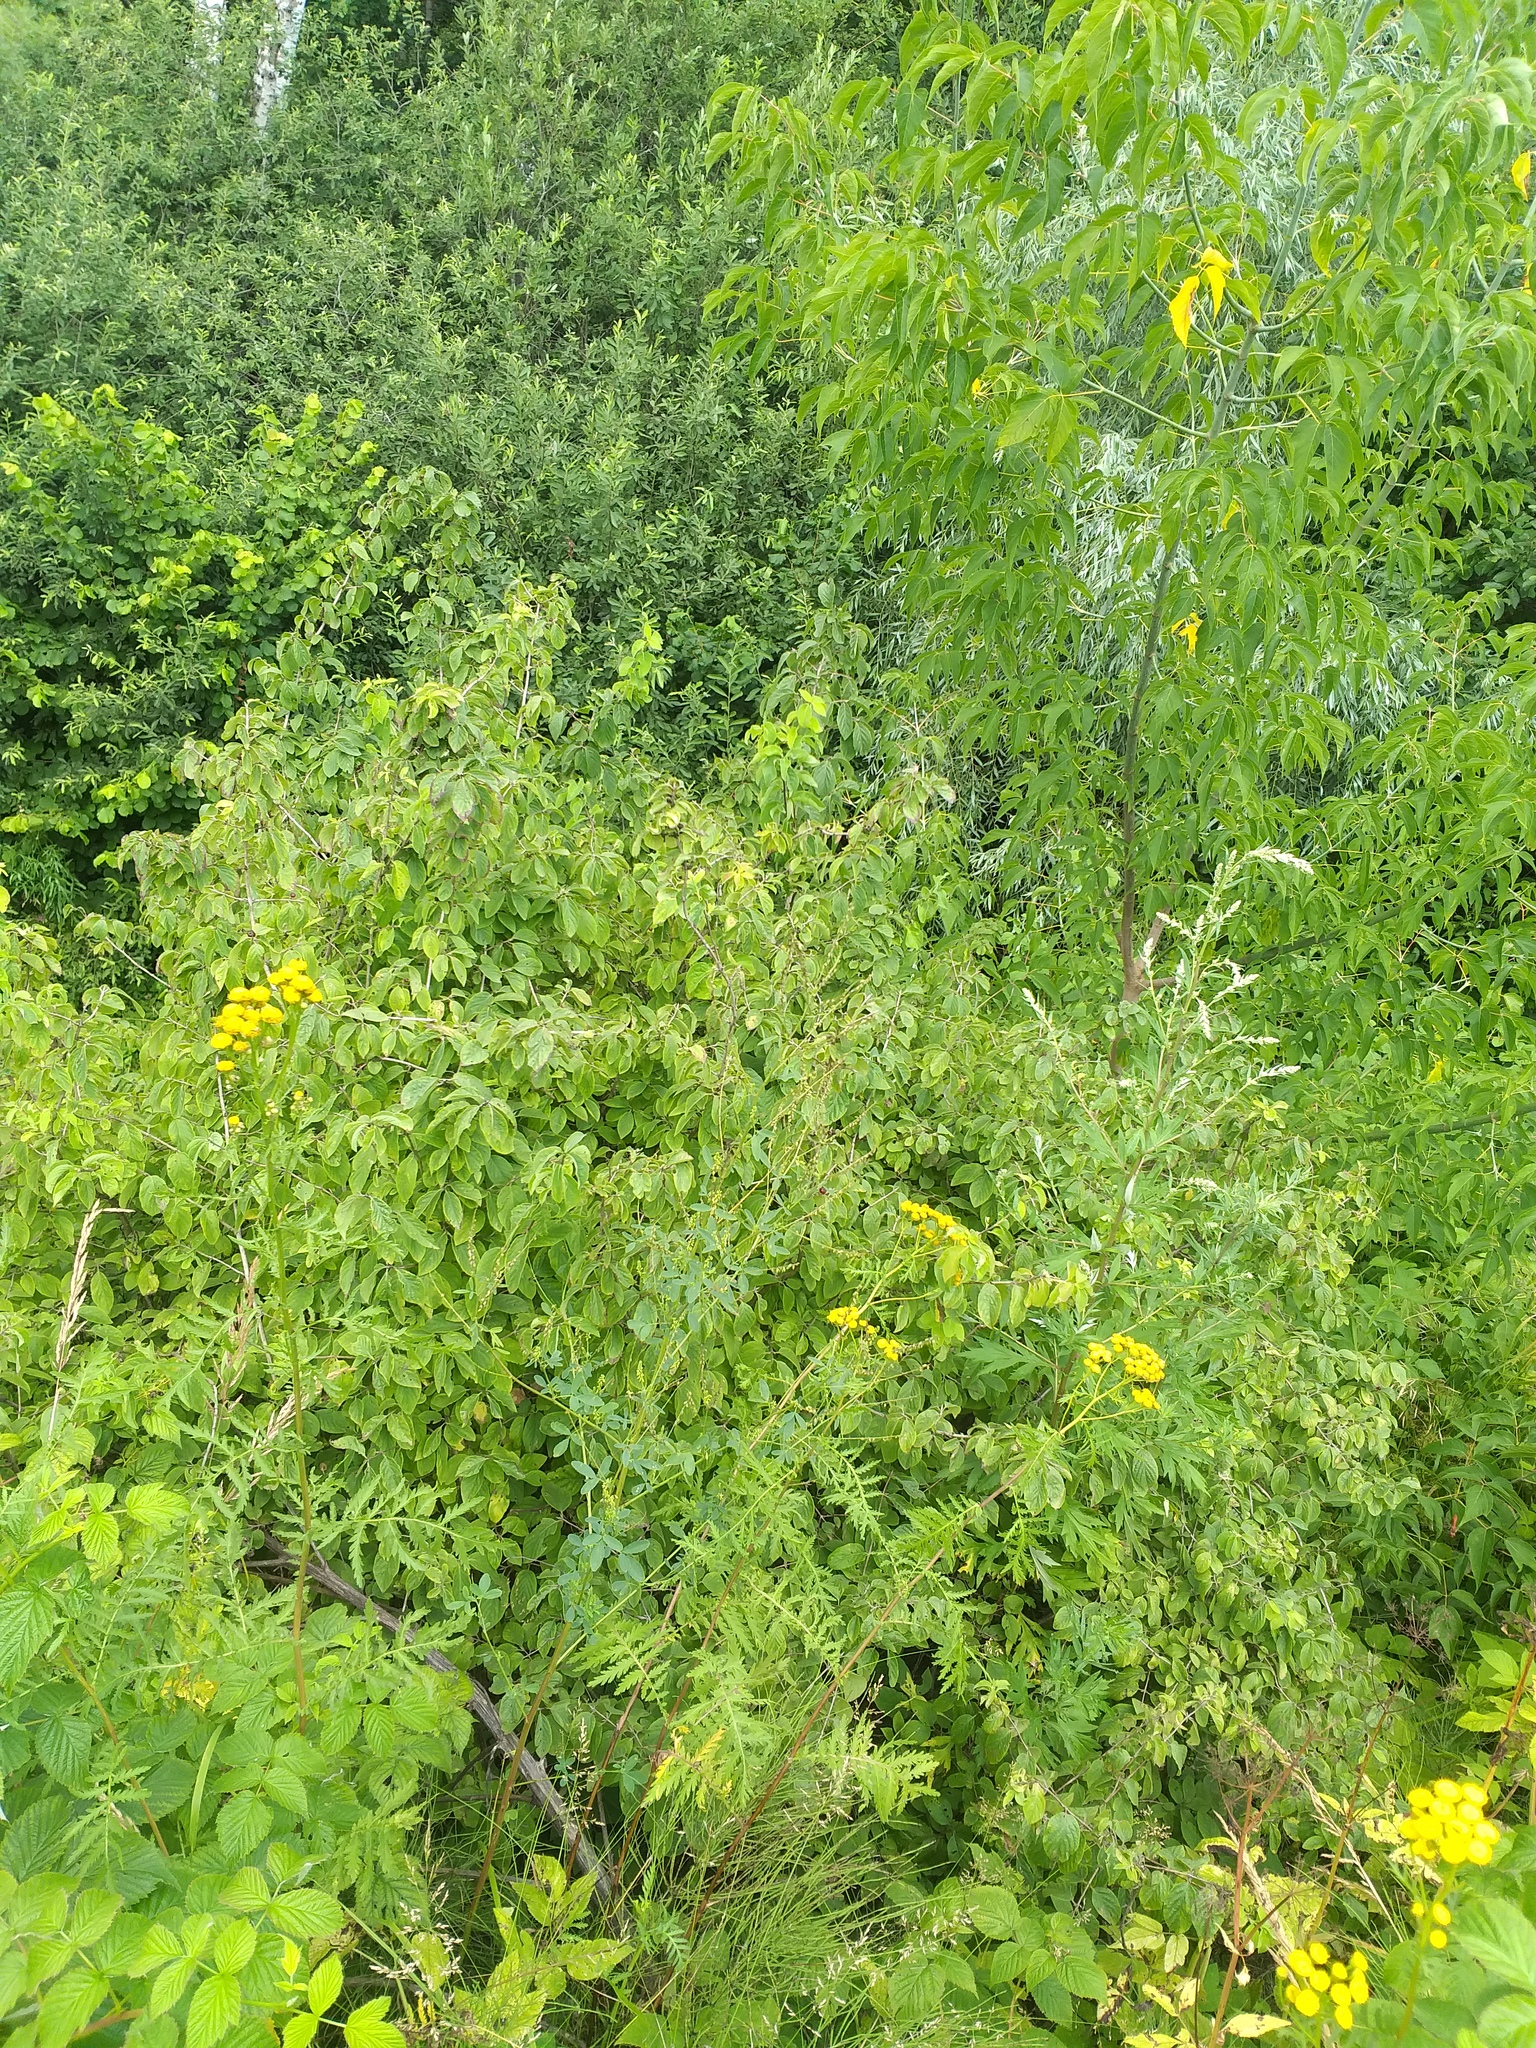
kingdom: Plantae
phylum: Tracheophyta
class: Magnoliopsida
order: Dipsacales
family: Caprifoliaceae
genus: Lonicera
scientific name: Lonicera xylosteum
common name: Fly honeysuckle
